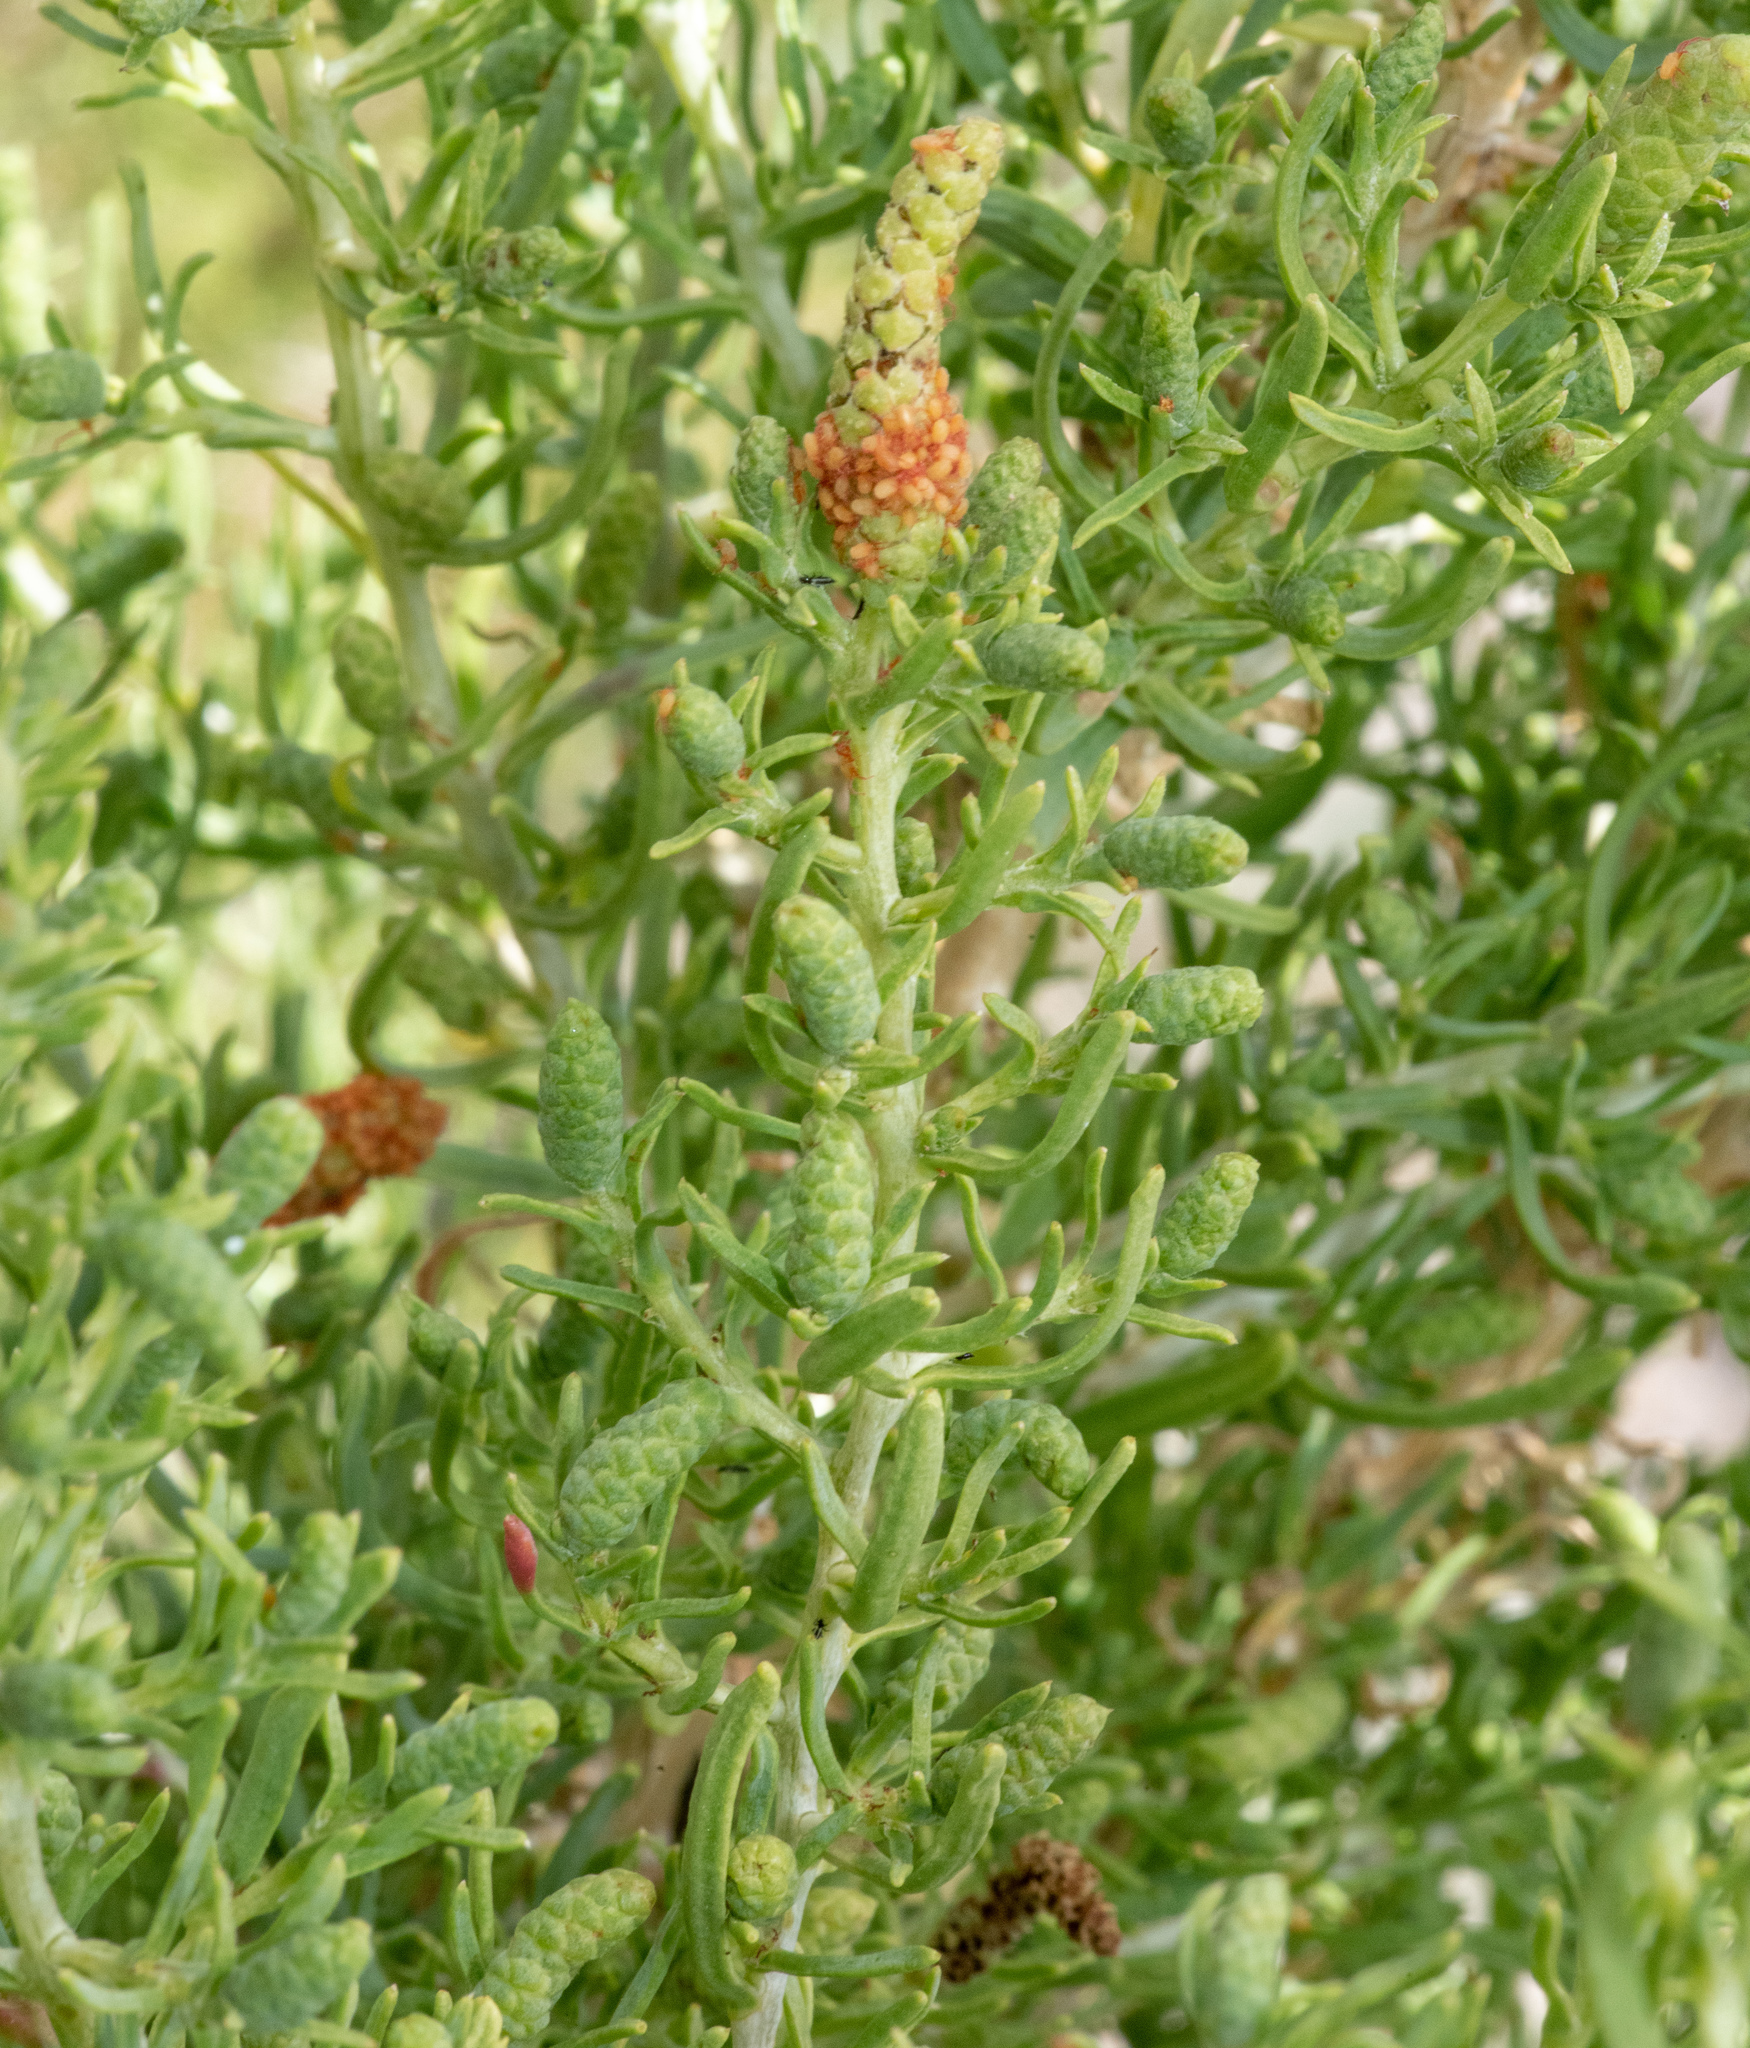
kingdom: Plantae
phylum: Tracheophyta
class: Magnoliopsida
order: Caryophyllales
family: Sarcobataceae
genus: Sarcobatus
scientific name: Sarcobatus vermiculatus
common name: Greasewood
